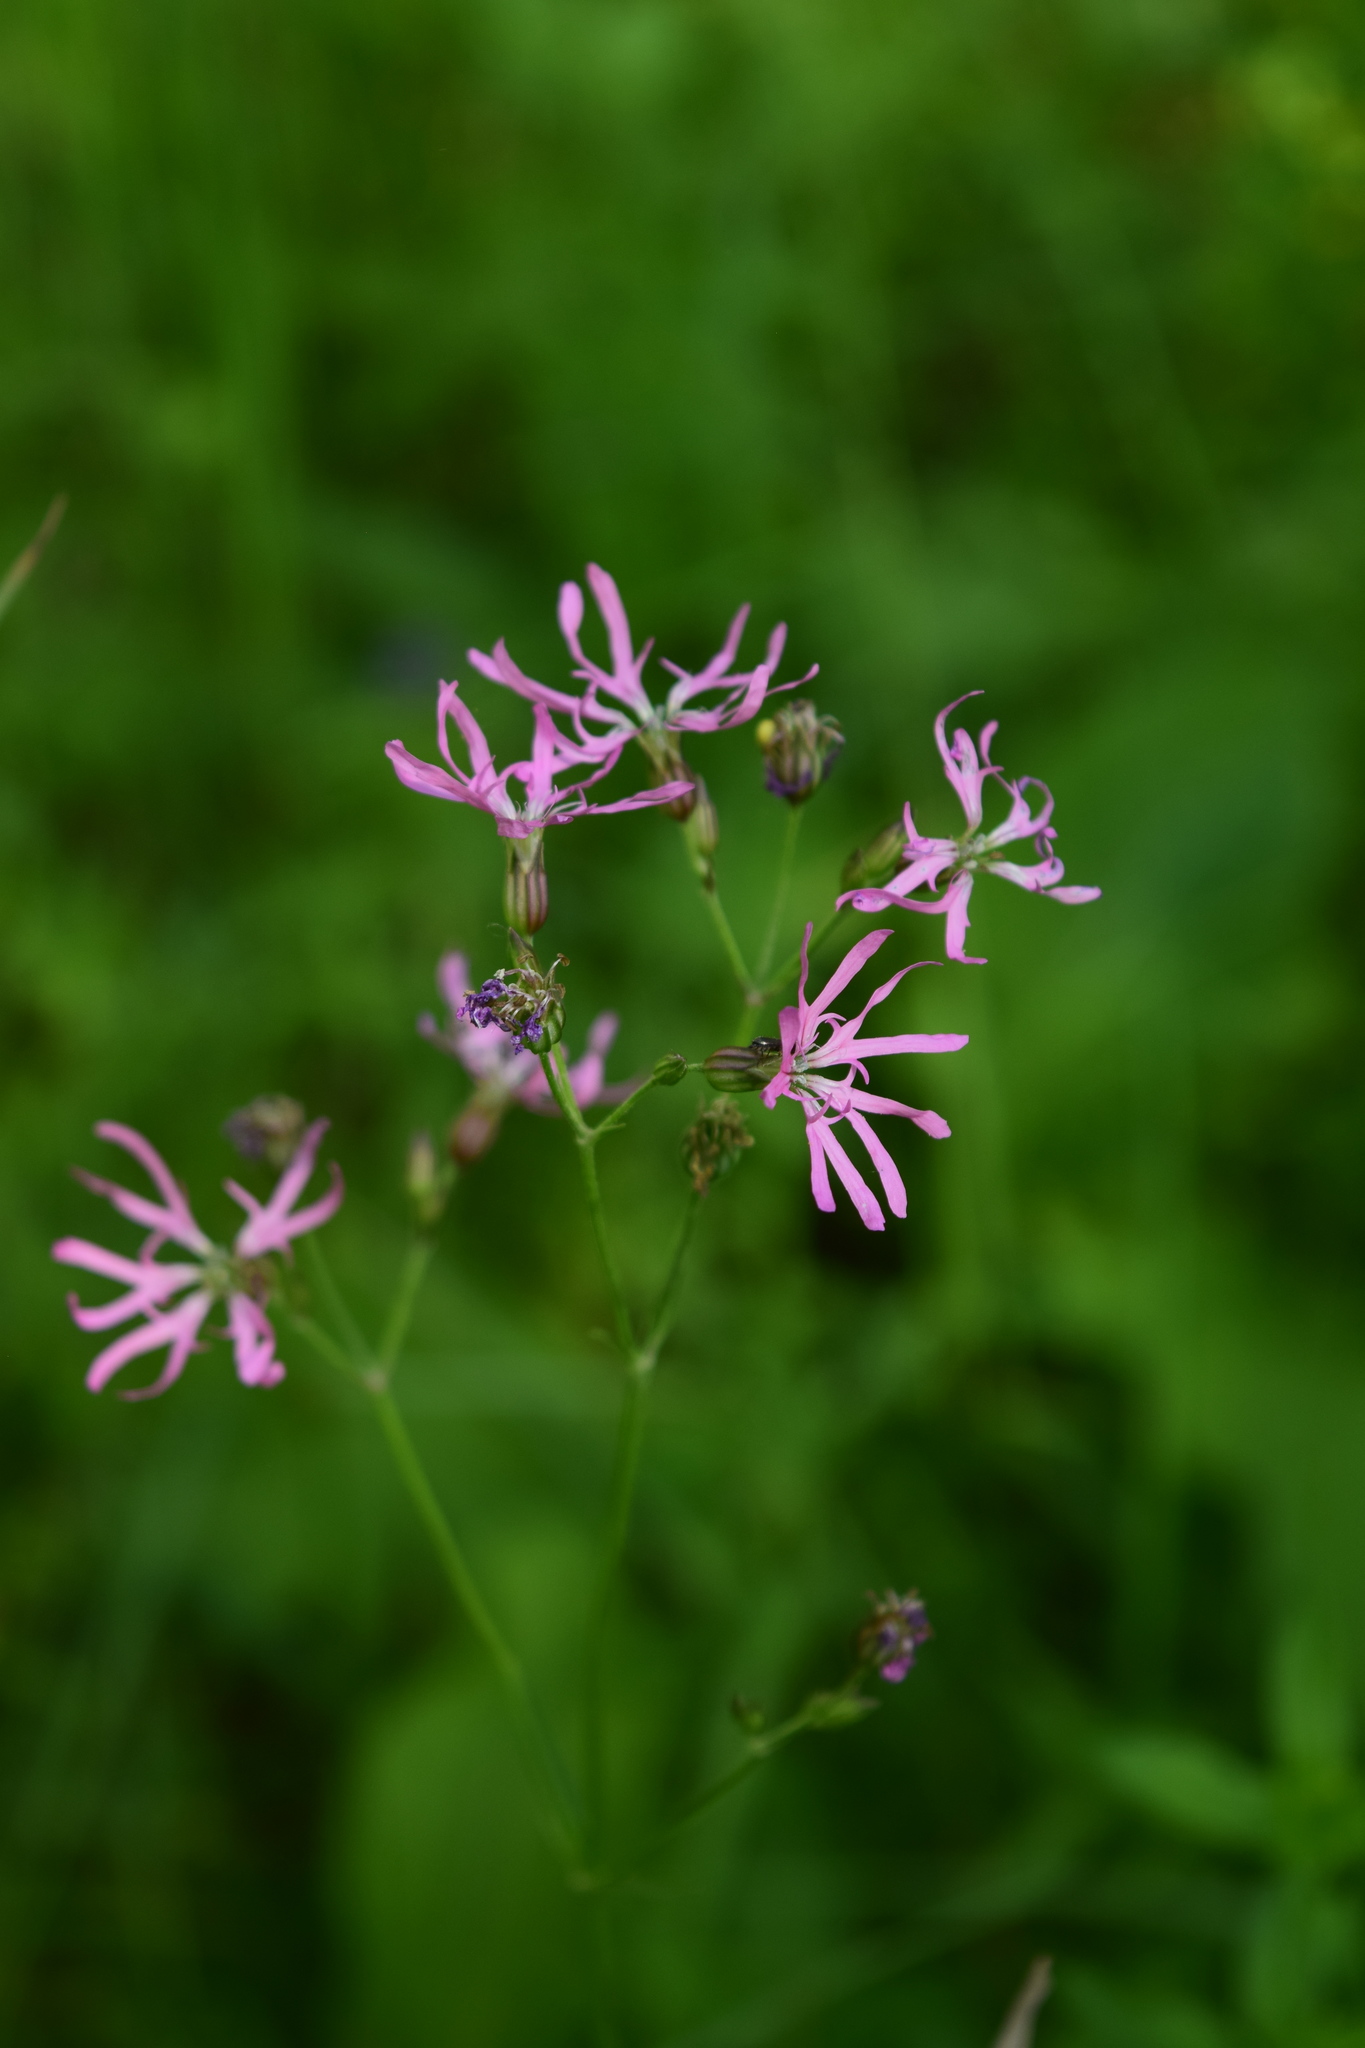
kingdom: Plantae
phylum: Tracheophyta
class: Magnoliopsida
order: Caryophyllales
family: Caryophyllaceae
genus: Silene
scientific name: Silene flos-cuculi
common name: Ragged-robin
